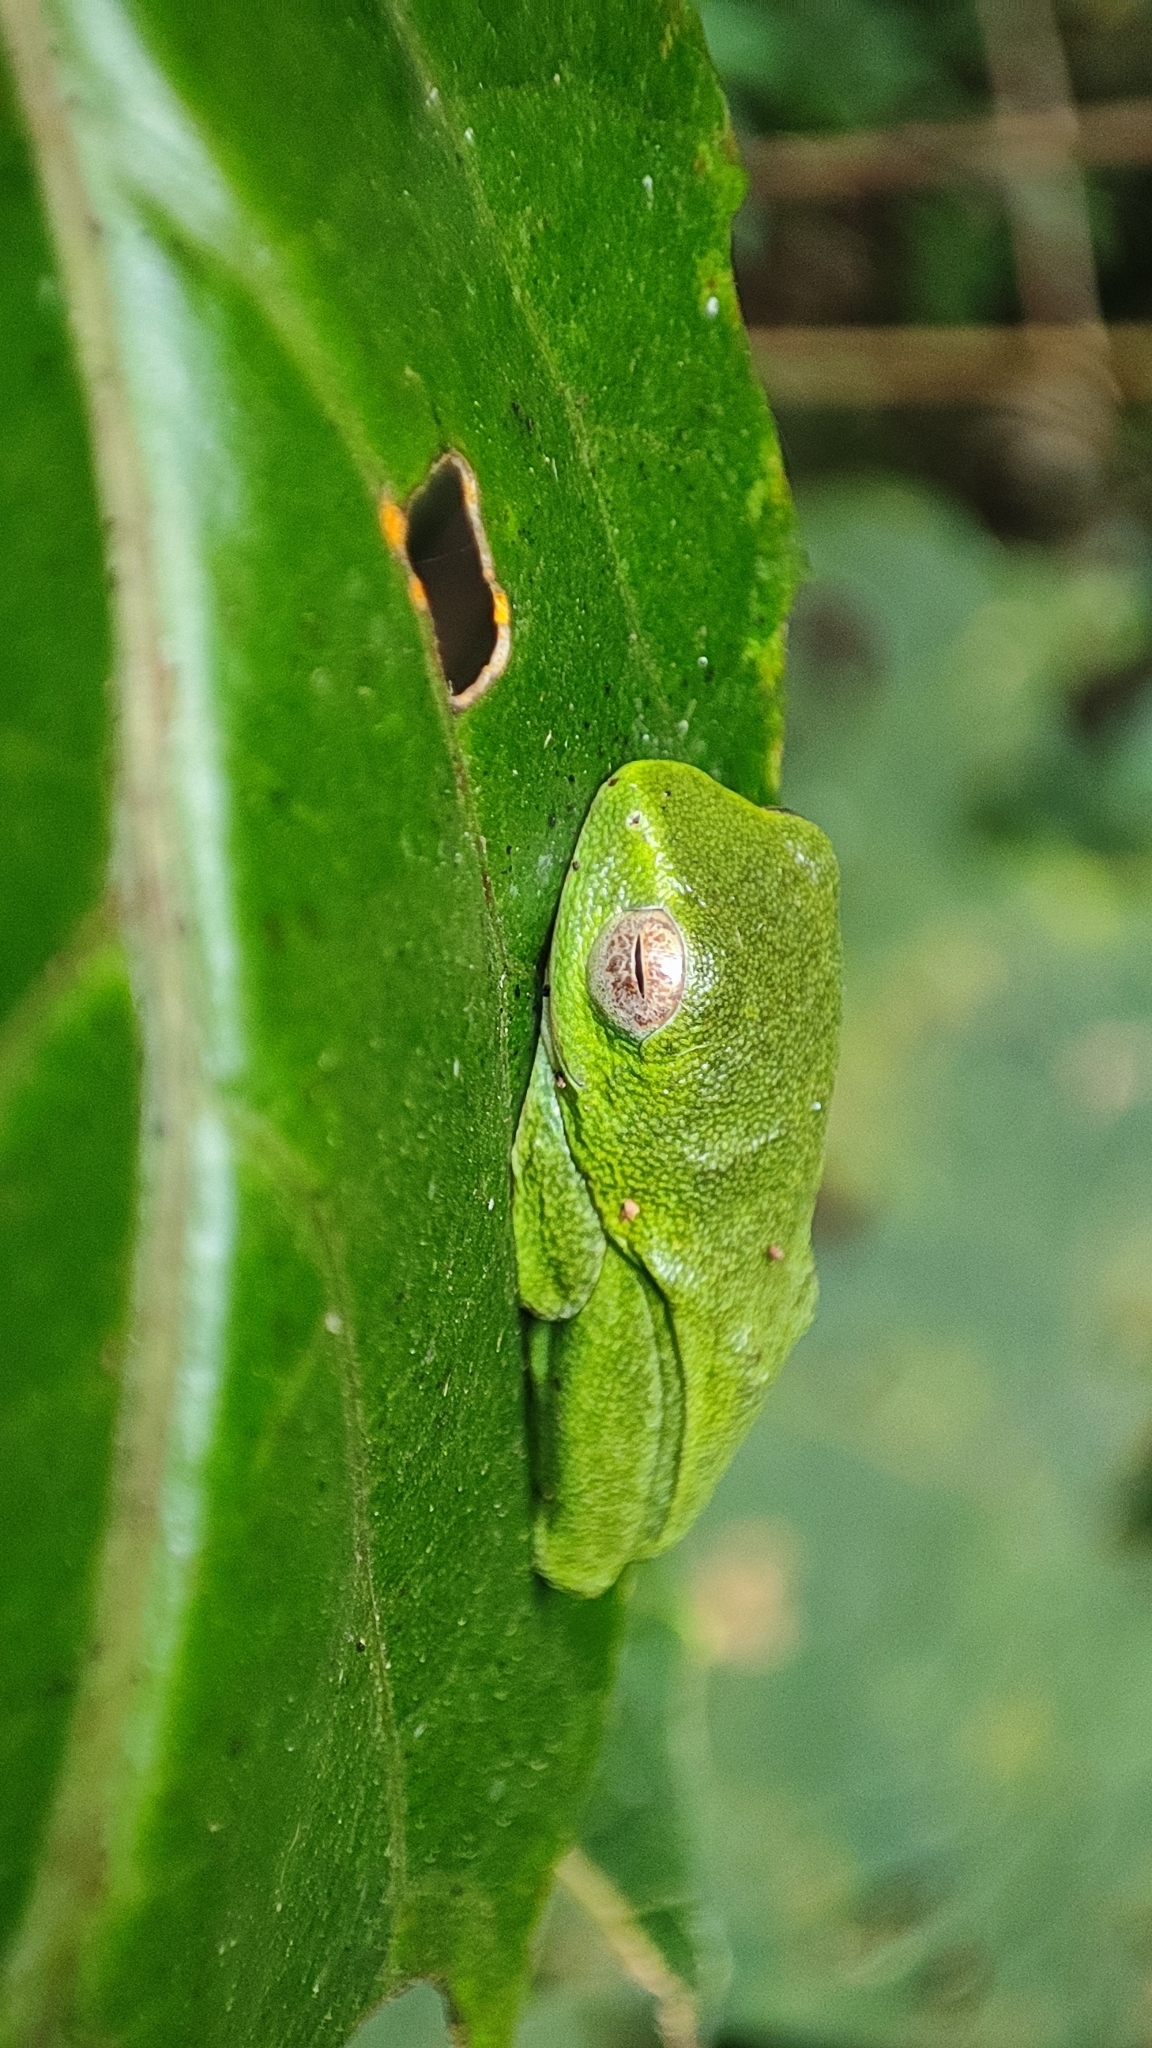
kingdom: Animalia
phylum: Chordata
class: Amphibia
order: Anura
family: Rhacophoridae
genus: Raorchestes
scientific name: Raorchestes jayarami
